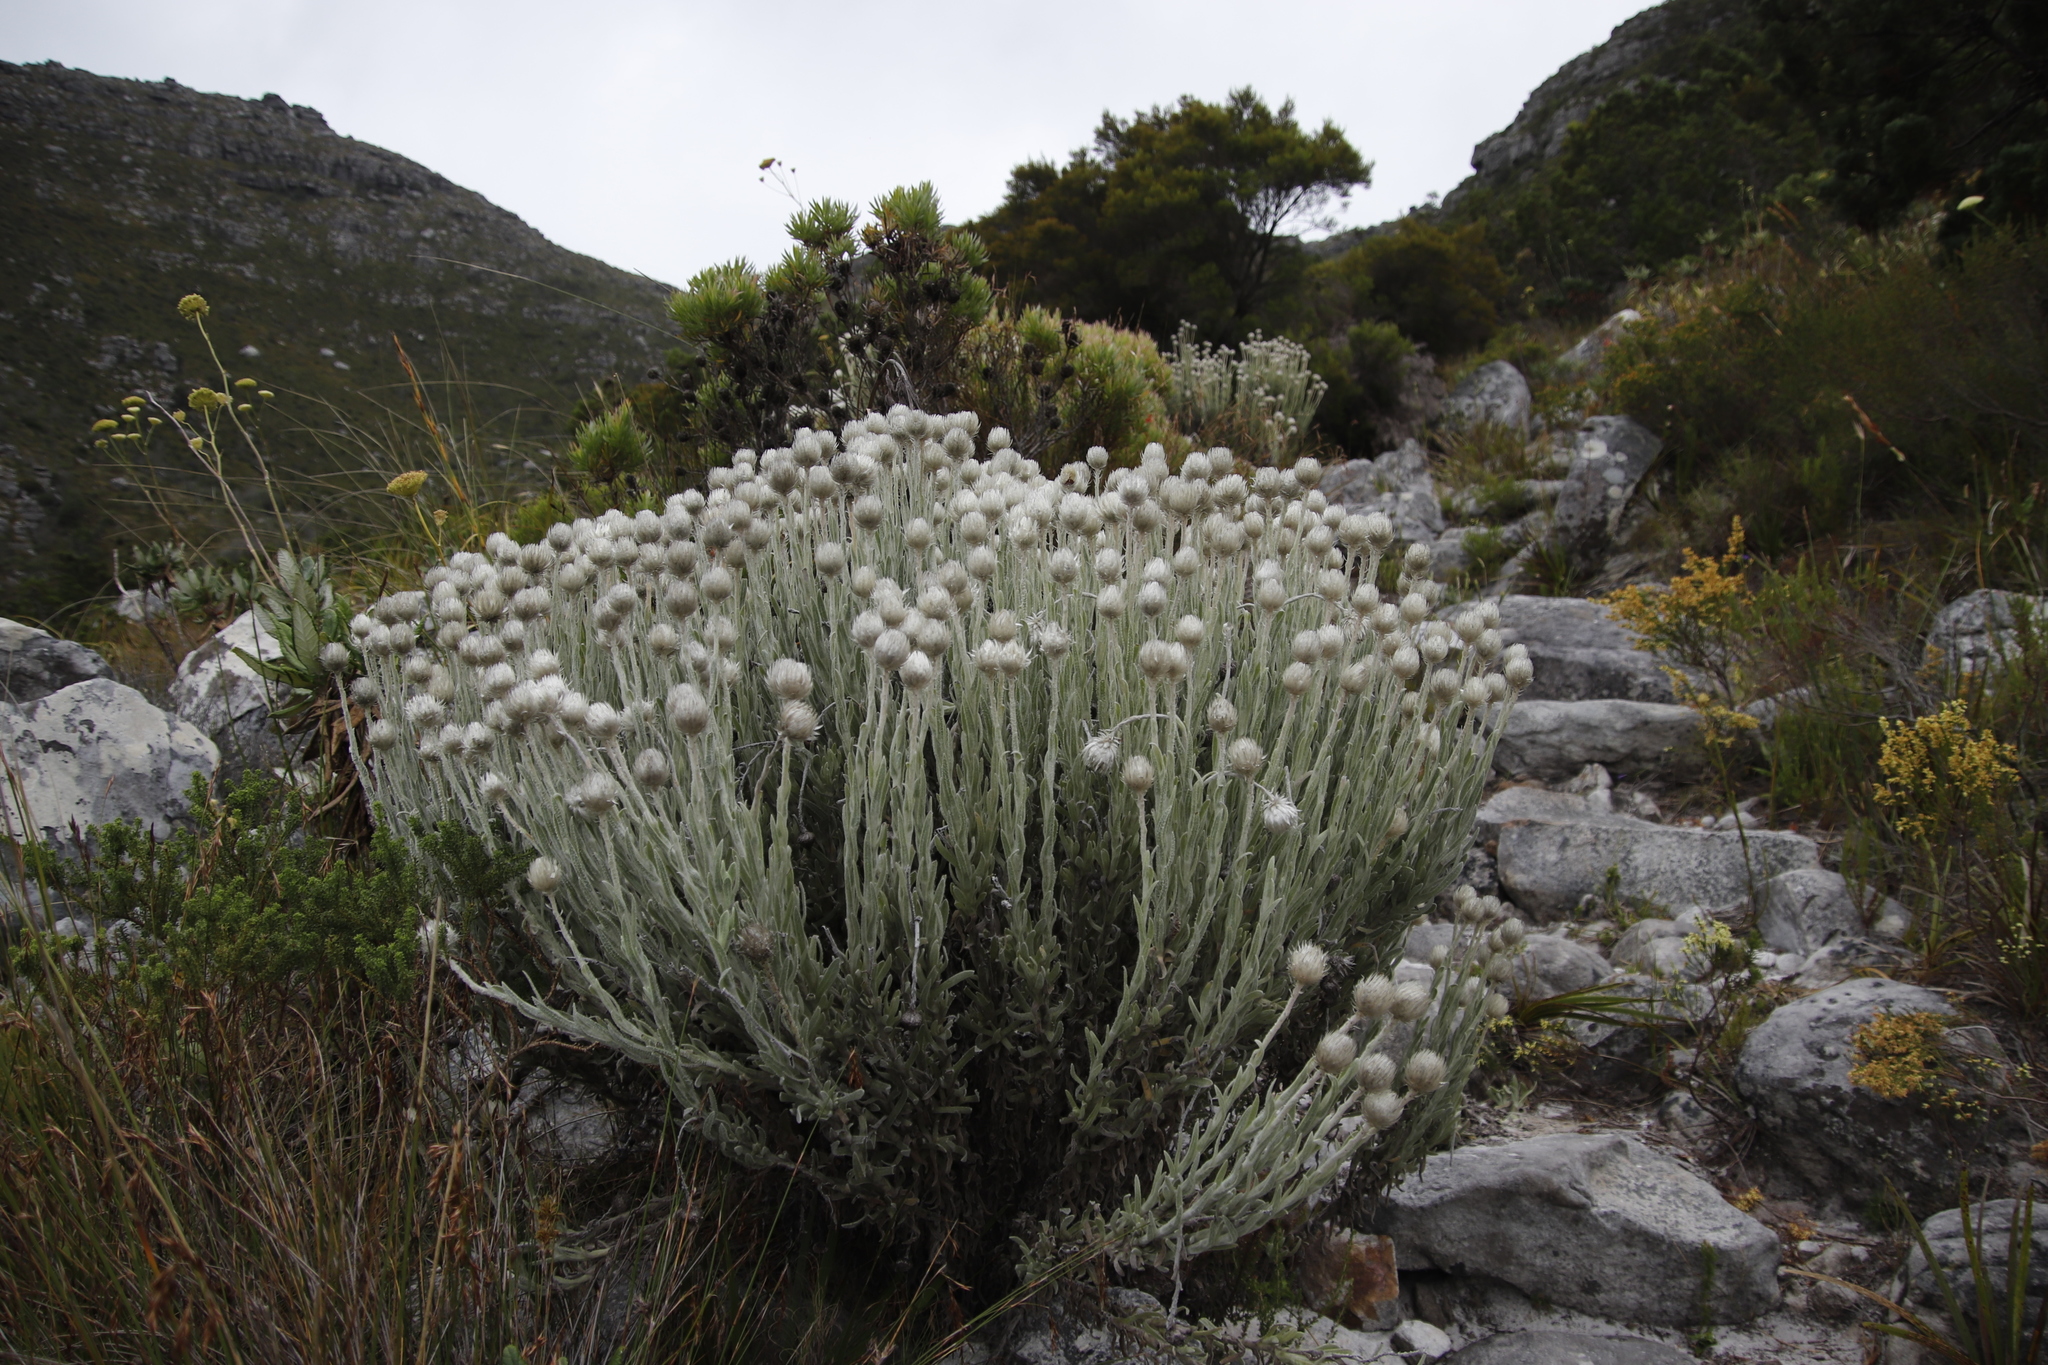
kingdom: Plantae
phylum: Tracheophyta
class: Magnoliopsida
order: Asterales
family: Asteraceae
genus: Syncarpha
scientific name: Syncarpha vestita
